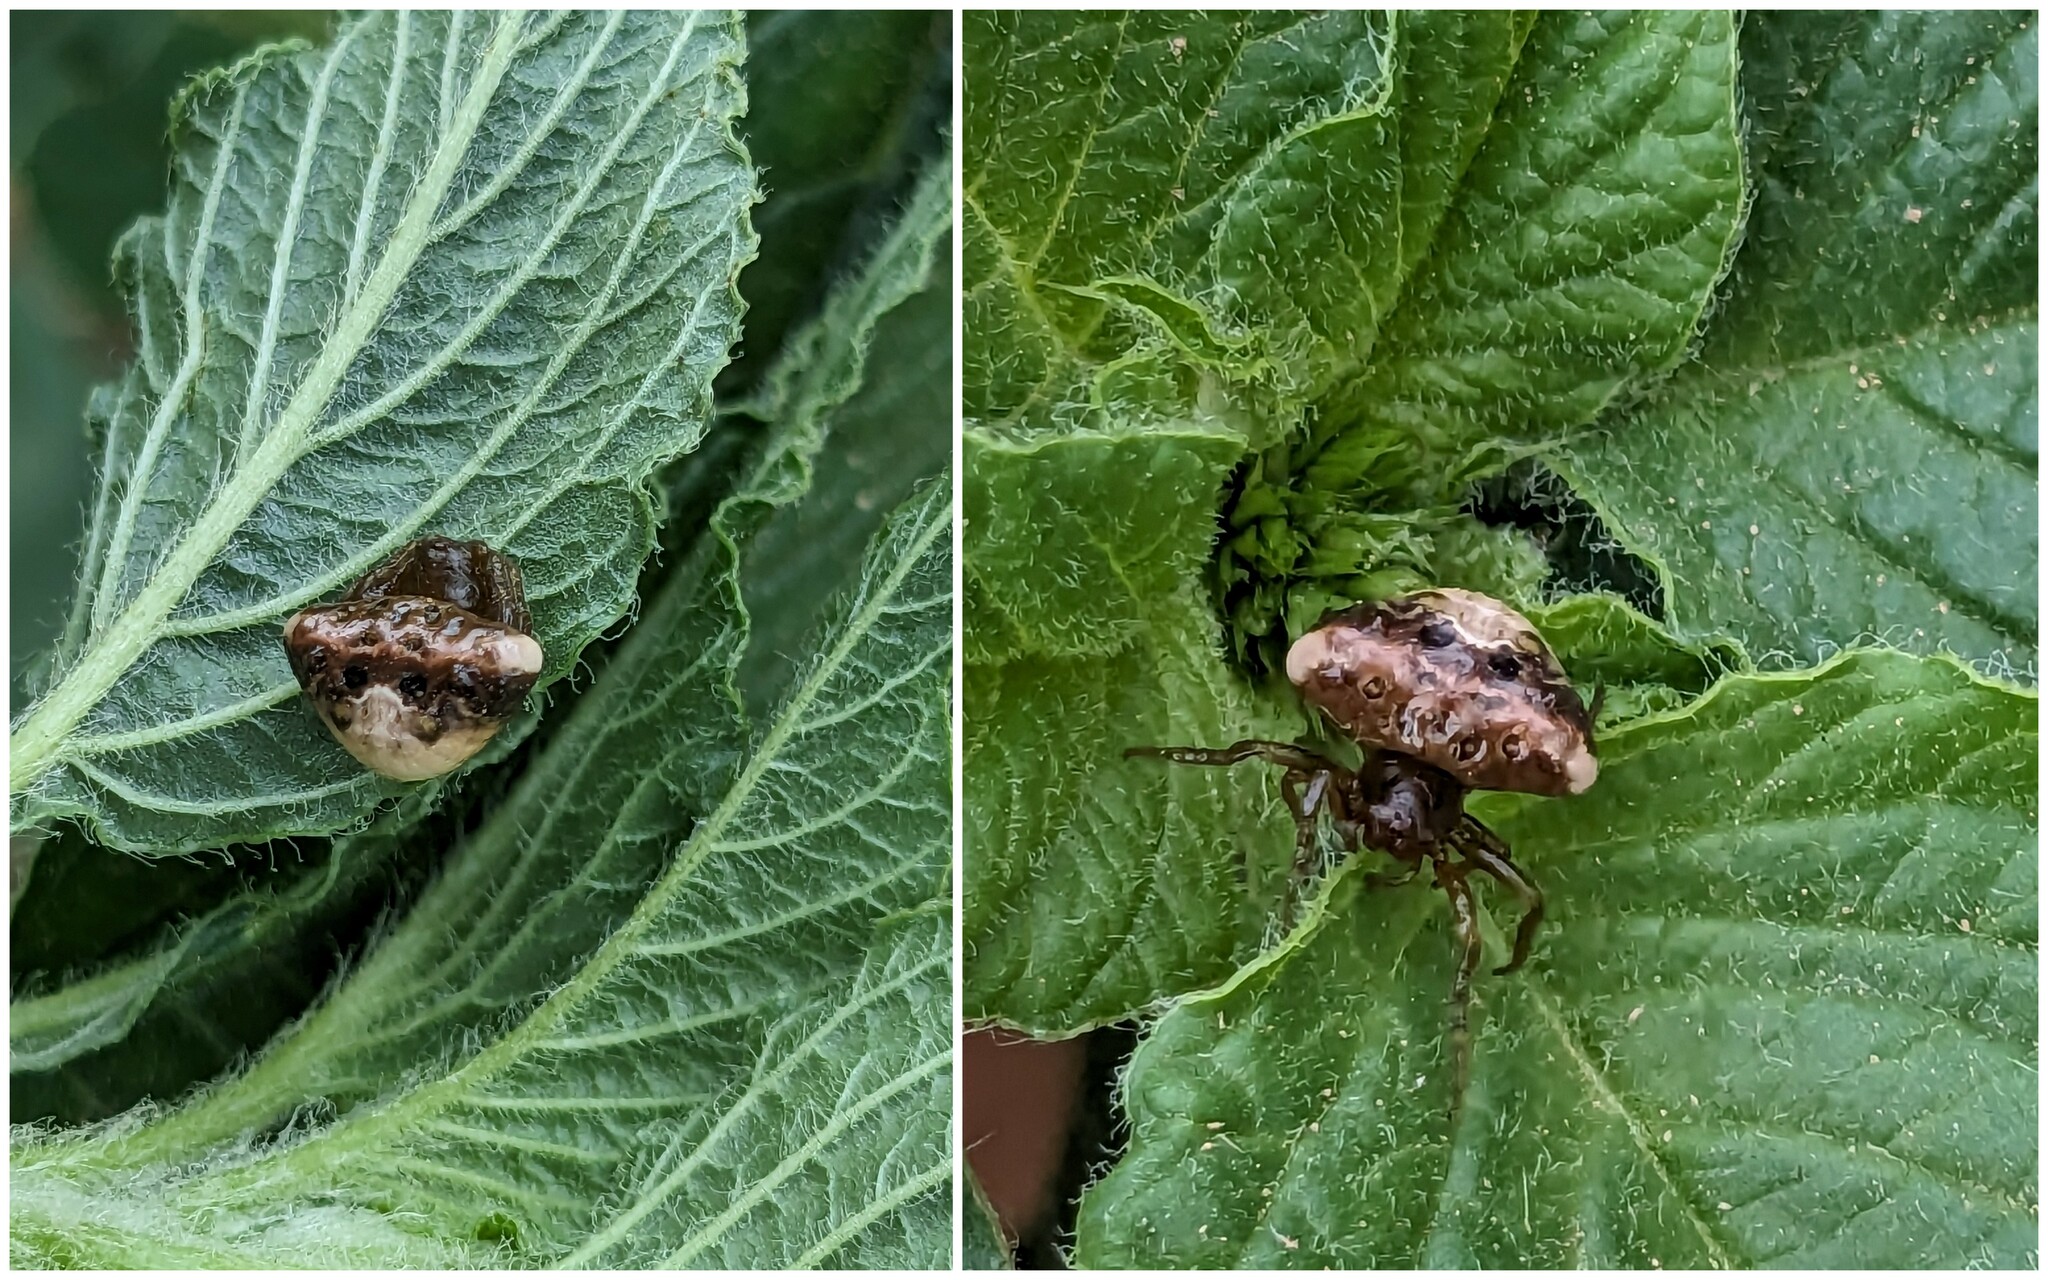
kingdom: Animalia
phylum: Arthropoda
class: Arachnida
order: Araneae
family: Araneidae
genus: Cyrtarachne
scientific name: Cyrtarachne ixoides
